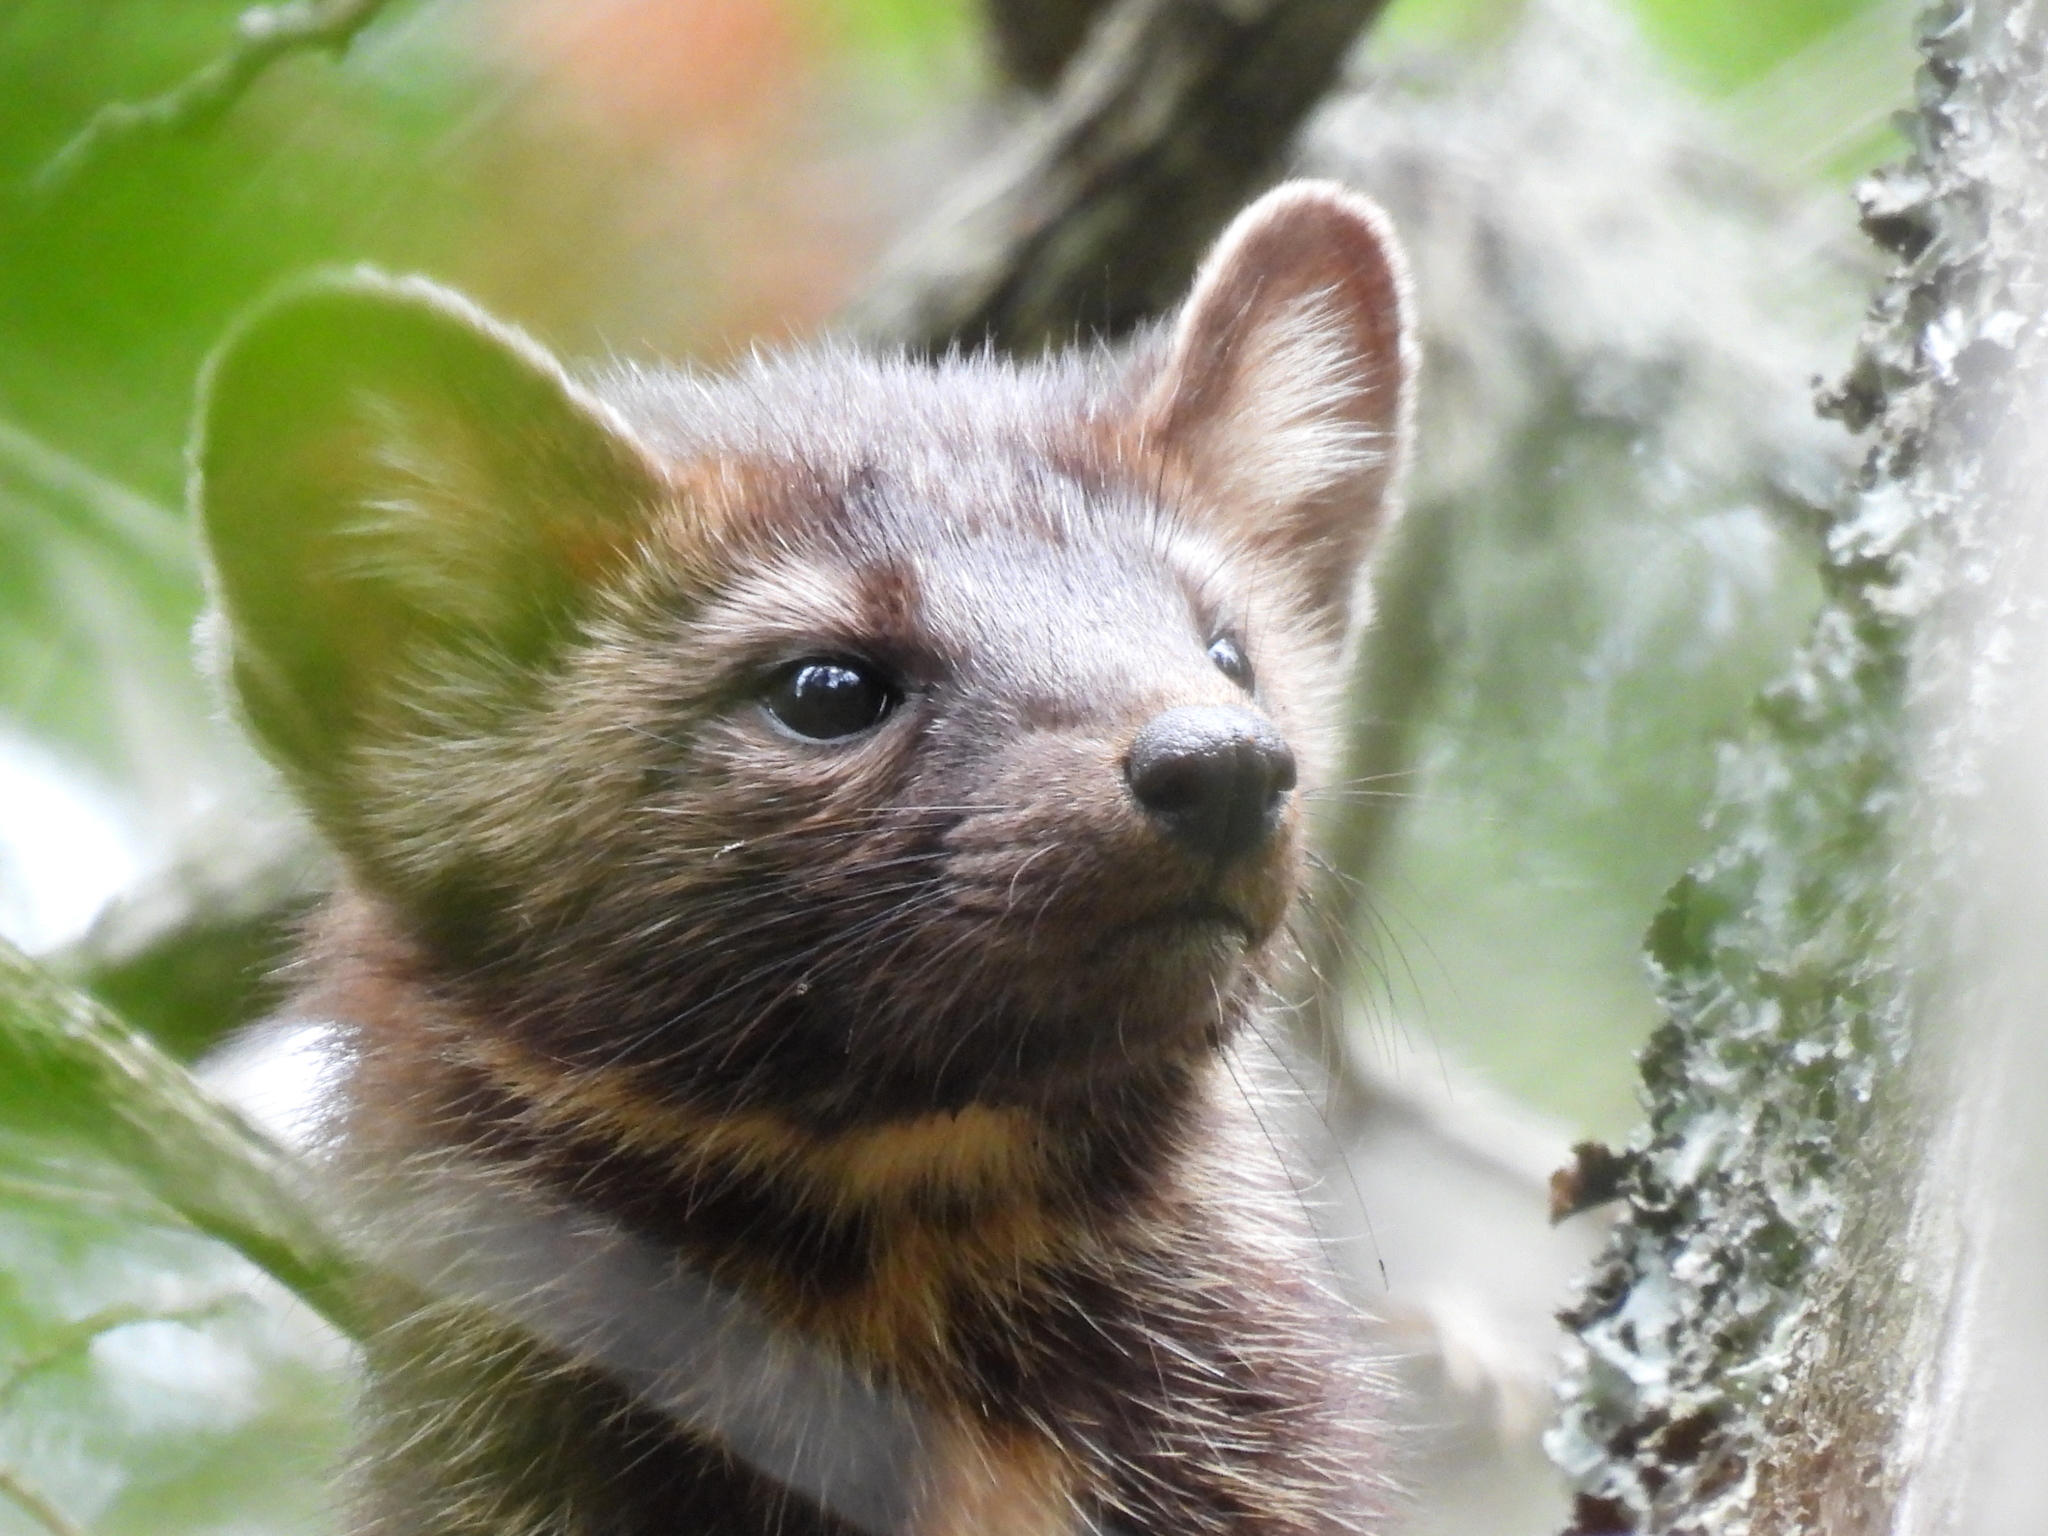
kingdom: Animalia
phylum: Chordata
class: Mammalia
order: Carnivora
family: Mustelidae
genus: Martes
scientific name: Martes americana
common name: American marten
